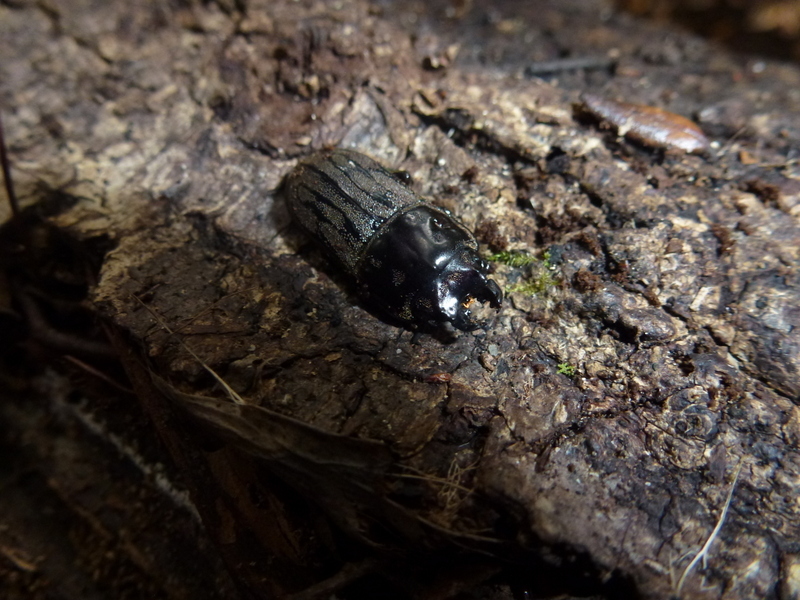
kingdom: Animalia
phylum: Arthropoda
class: Insecta
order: Coleoptera
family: Lucanidae
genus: Paralissotes
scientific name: Paralissotes reticulatus
